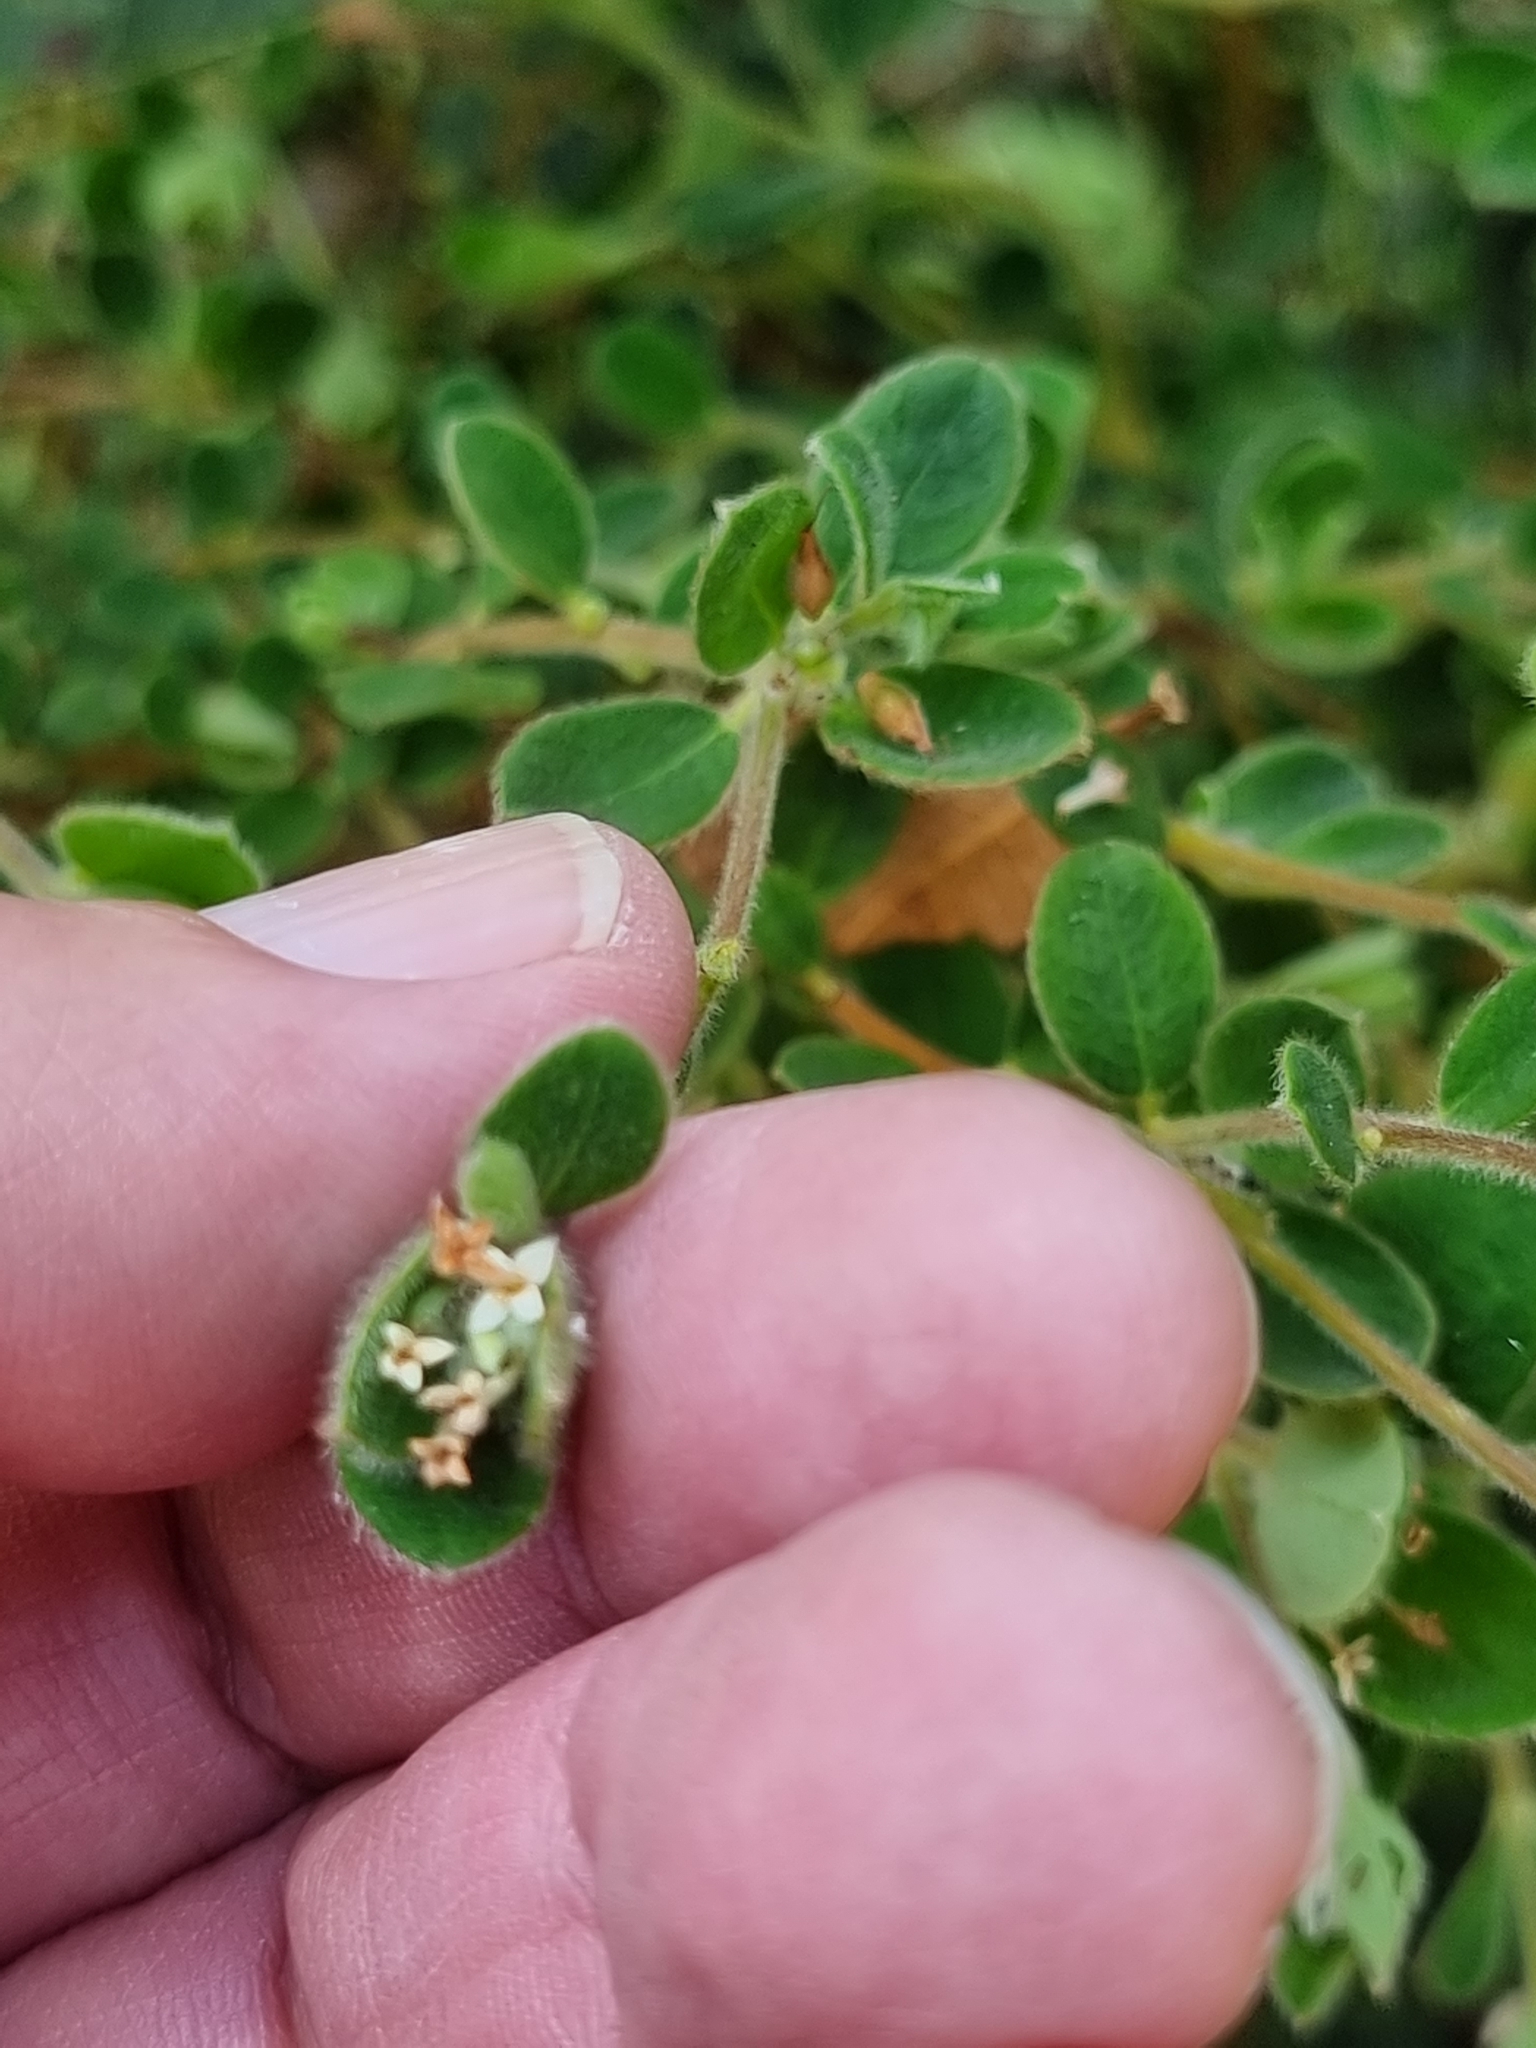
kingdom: Plantae
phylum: Tracheophyta
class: Magnoliopsida
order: Malvales
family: Thymelaeaceae
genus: Pimelea
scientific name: Pimelea altior
